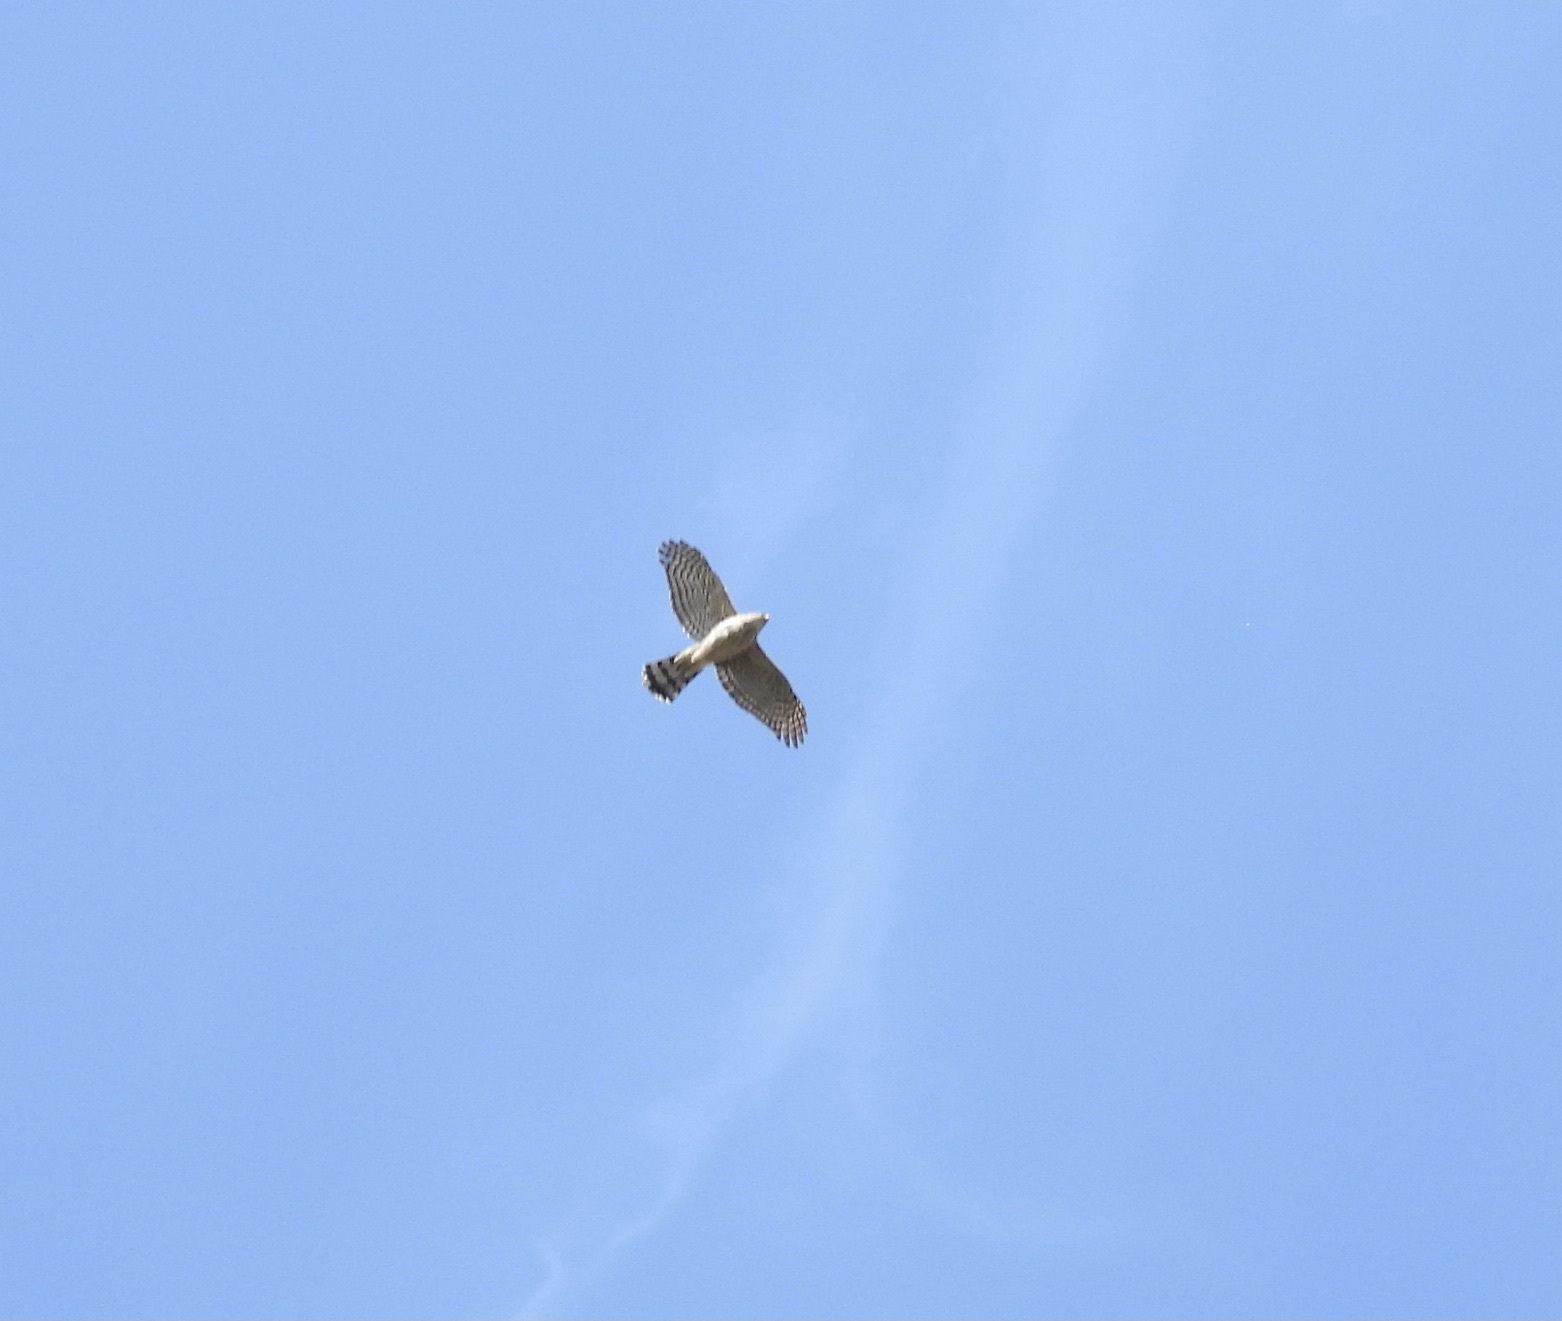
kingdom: Animalia
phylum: Chordata
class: Aves
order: Accipitriformes
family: Accipitridae
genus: Accipiter
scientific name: Accipiter cooperii
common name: Cooper's hawk
